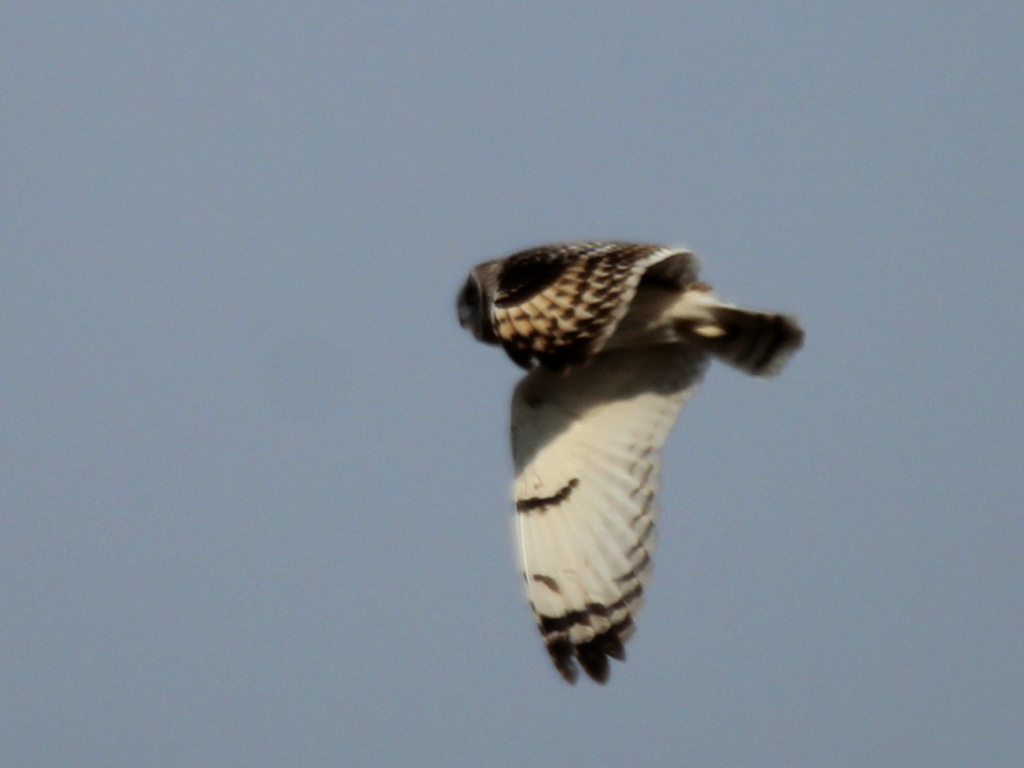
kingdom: Animalia
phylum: Chordata
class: Aves
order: Strigiformes
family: Strigidae
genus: Asio
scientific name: Asio flammeus
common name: Short-eared owl
